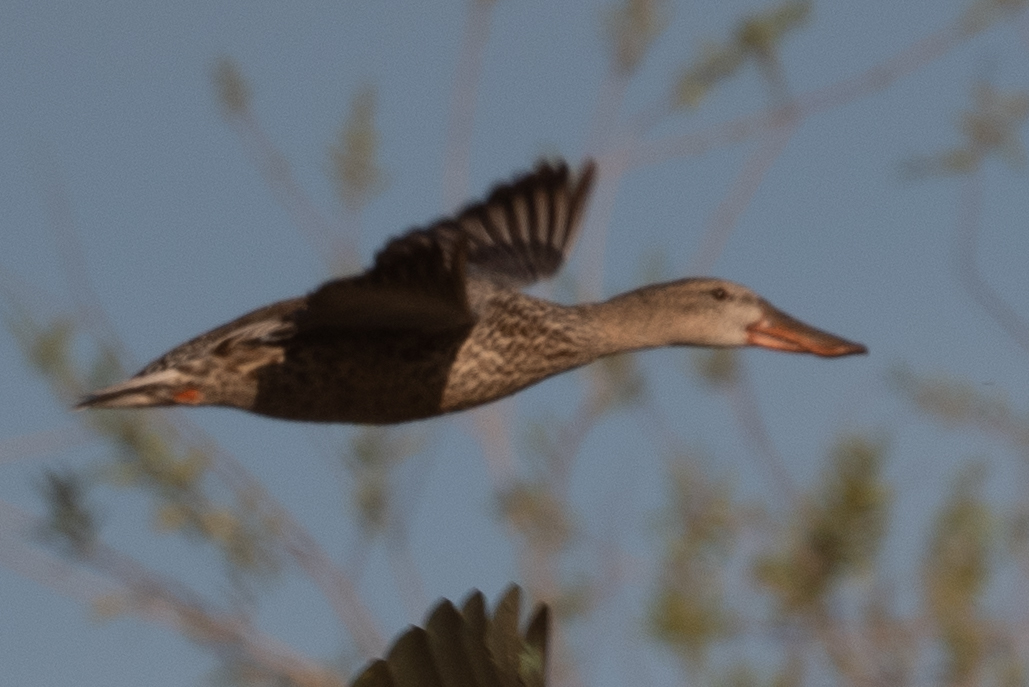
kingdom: Animalia
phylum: Chordata
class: Aves
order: Anseriformes
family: Anatidae
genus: Spatula
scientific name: Spatula clypeata
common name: Northern shoveler
